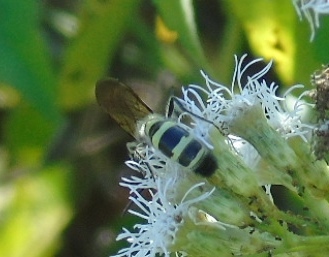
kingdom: Animalia
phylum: Arthropoda
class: Insecta
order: Hymenoptera
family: Scoliidae
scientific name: Scoliidae
